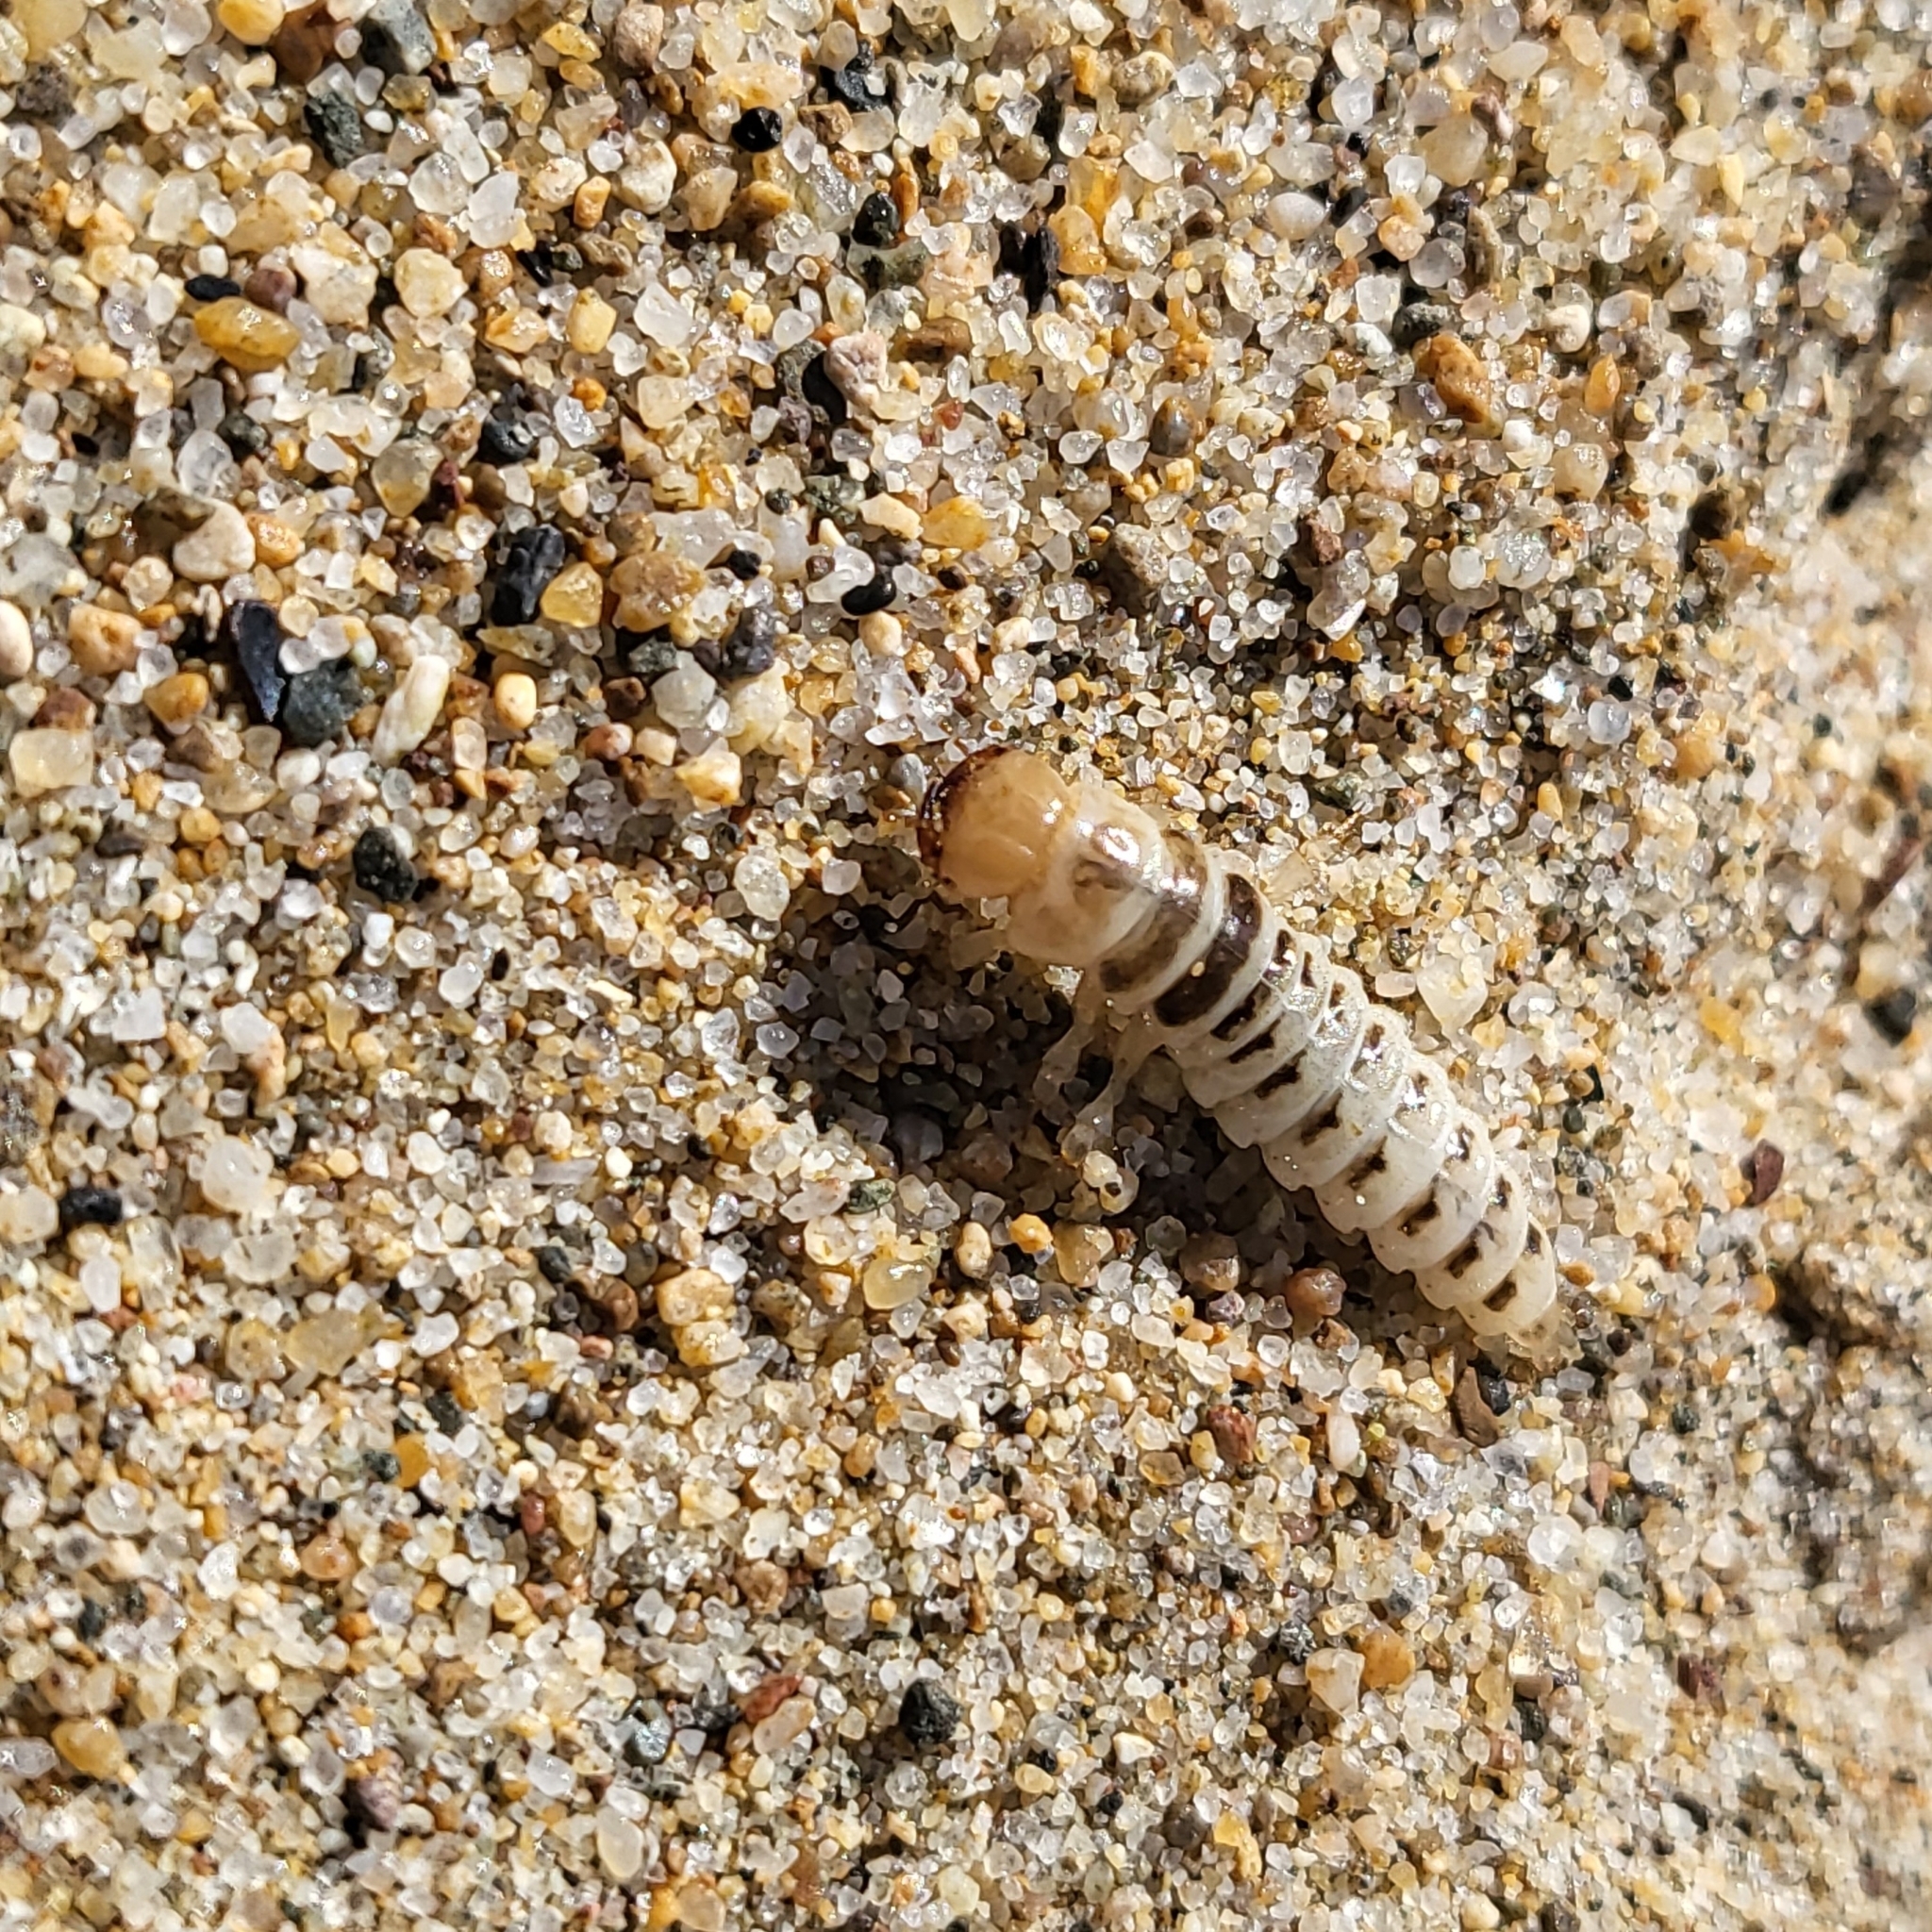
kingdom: Animalia
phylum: Arthropoda
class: Insecta
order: Coleoptera
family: Staphylinidae
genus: Thinopinus
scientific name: Thinopinus pictus
